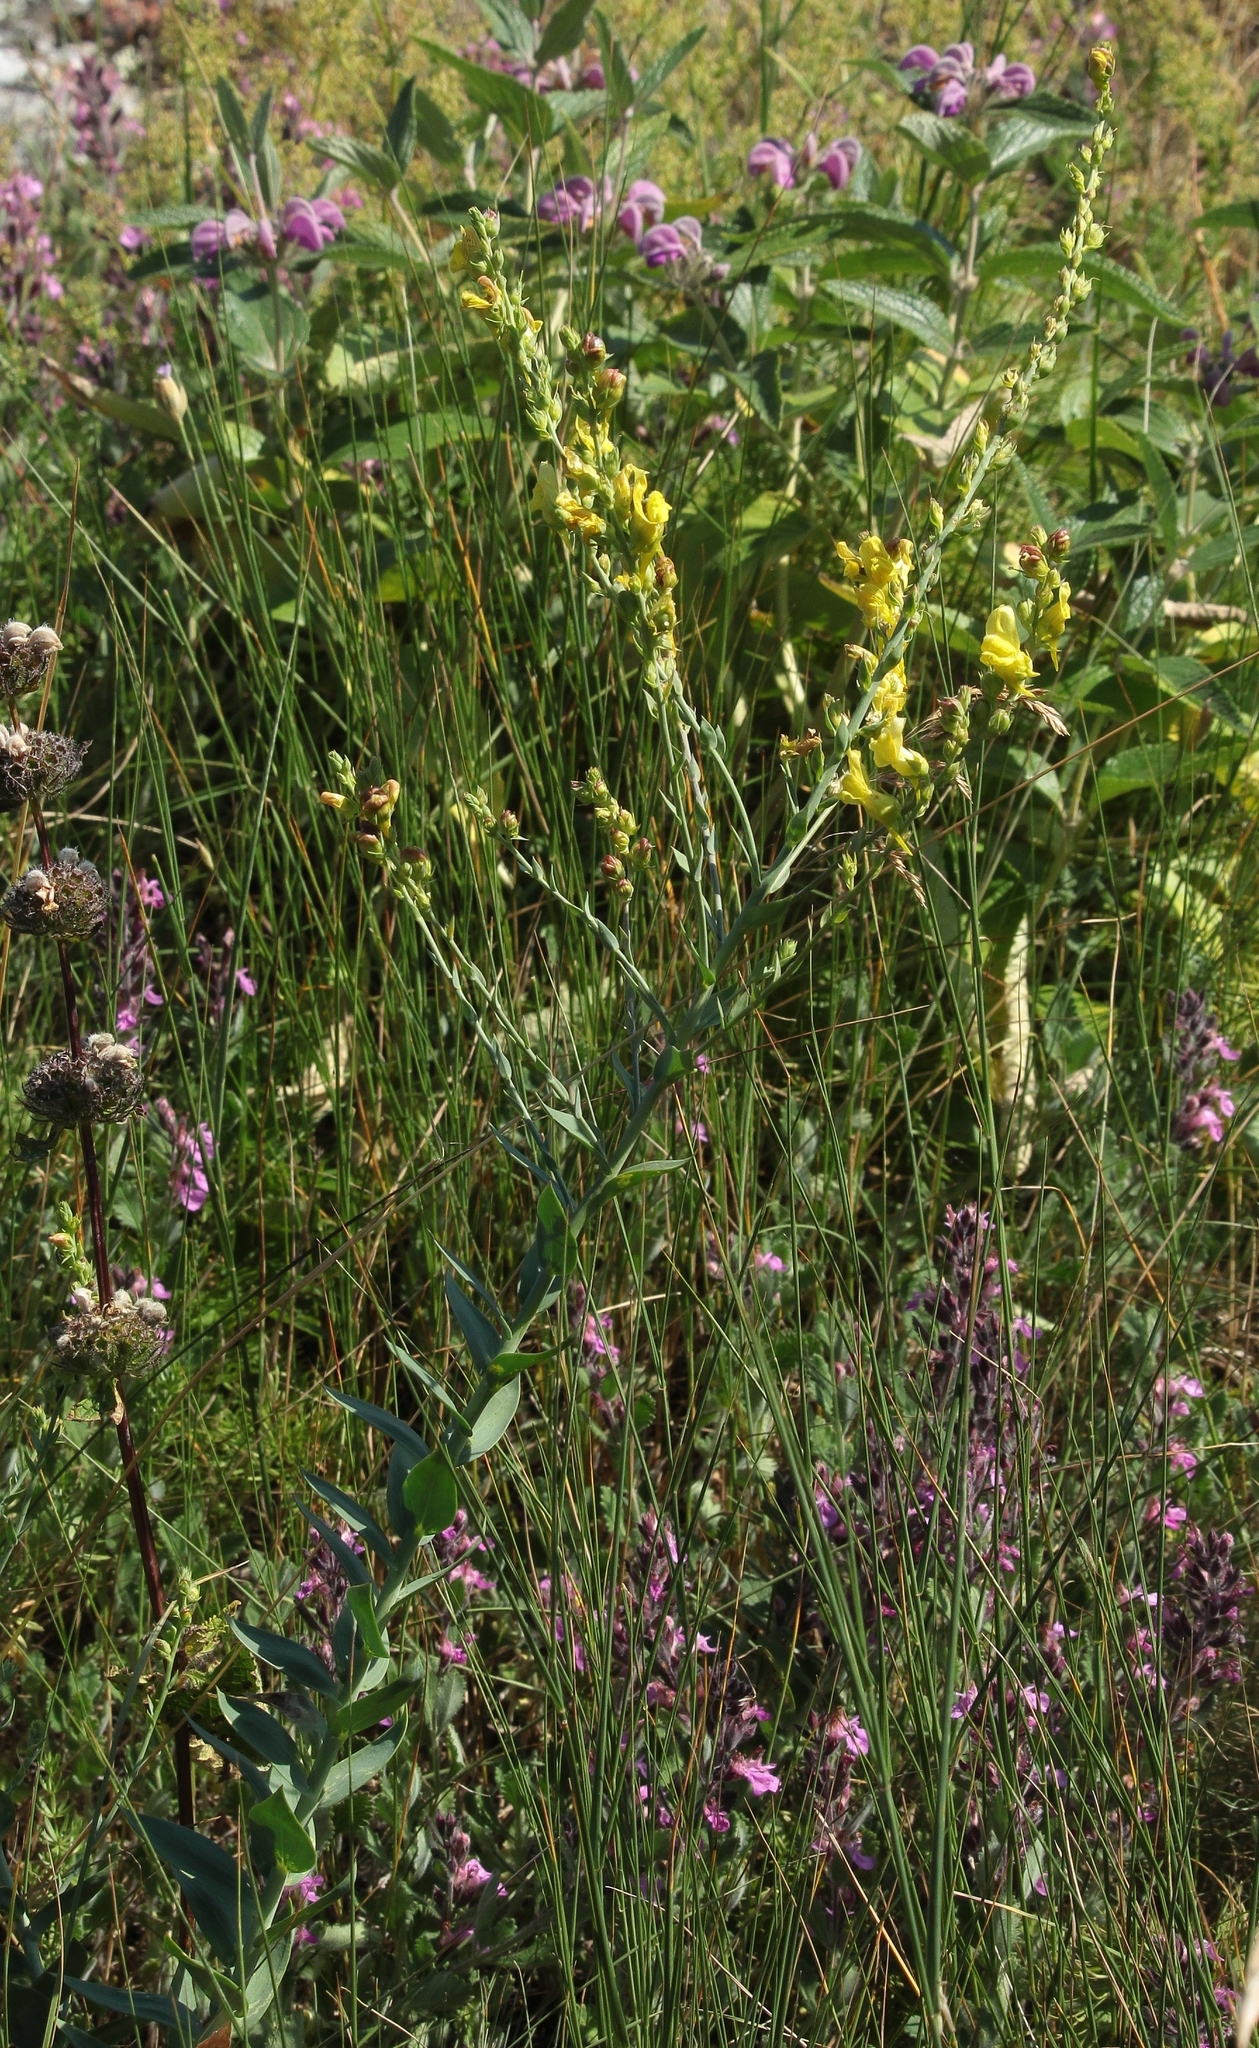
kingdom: Plantae
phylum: Tracheophyta
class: Magnoliopsida
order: Lamiales
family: Plantaginaceae
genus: Linaria
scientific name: Linaria genistifolia
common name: Broomleaf toadflax
